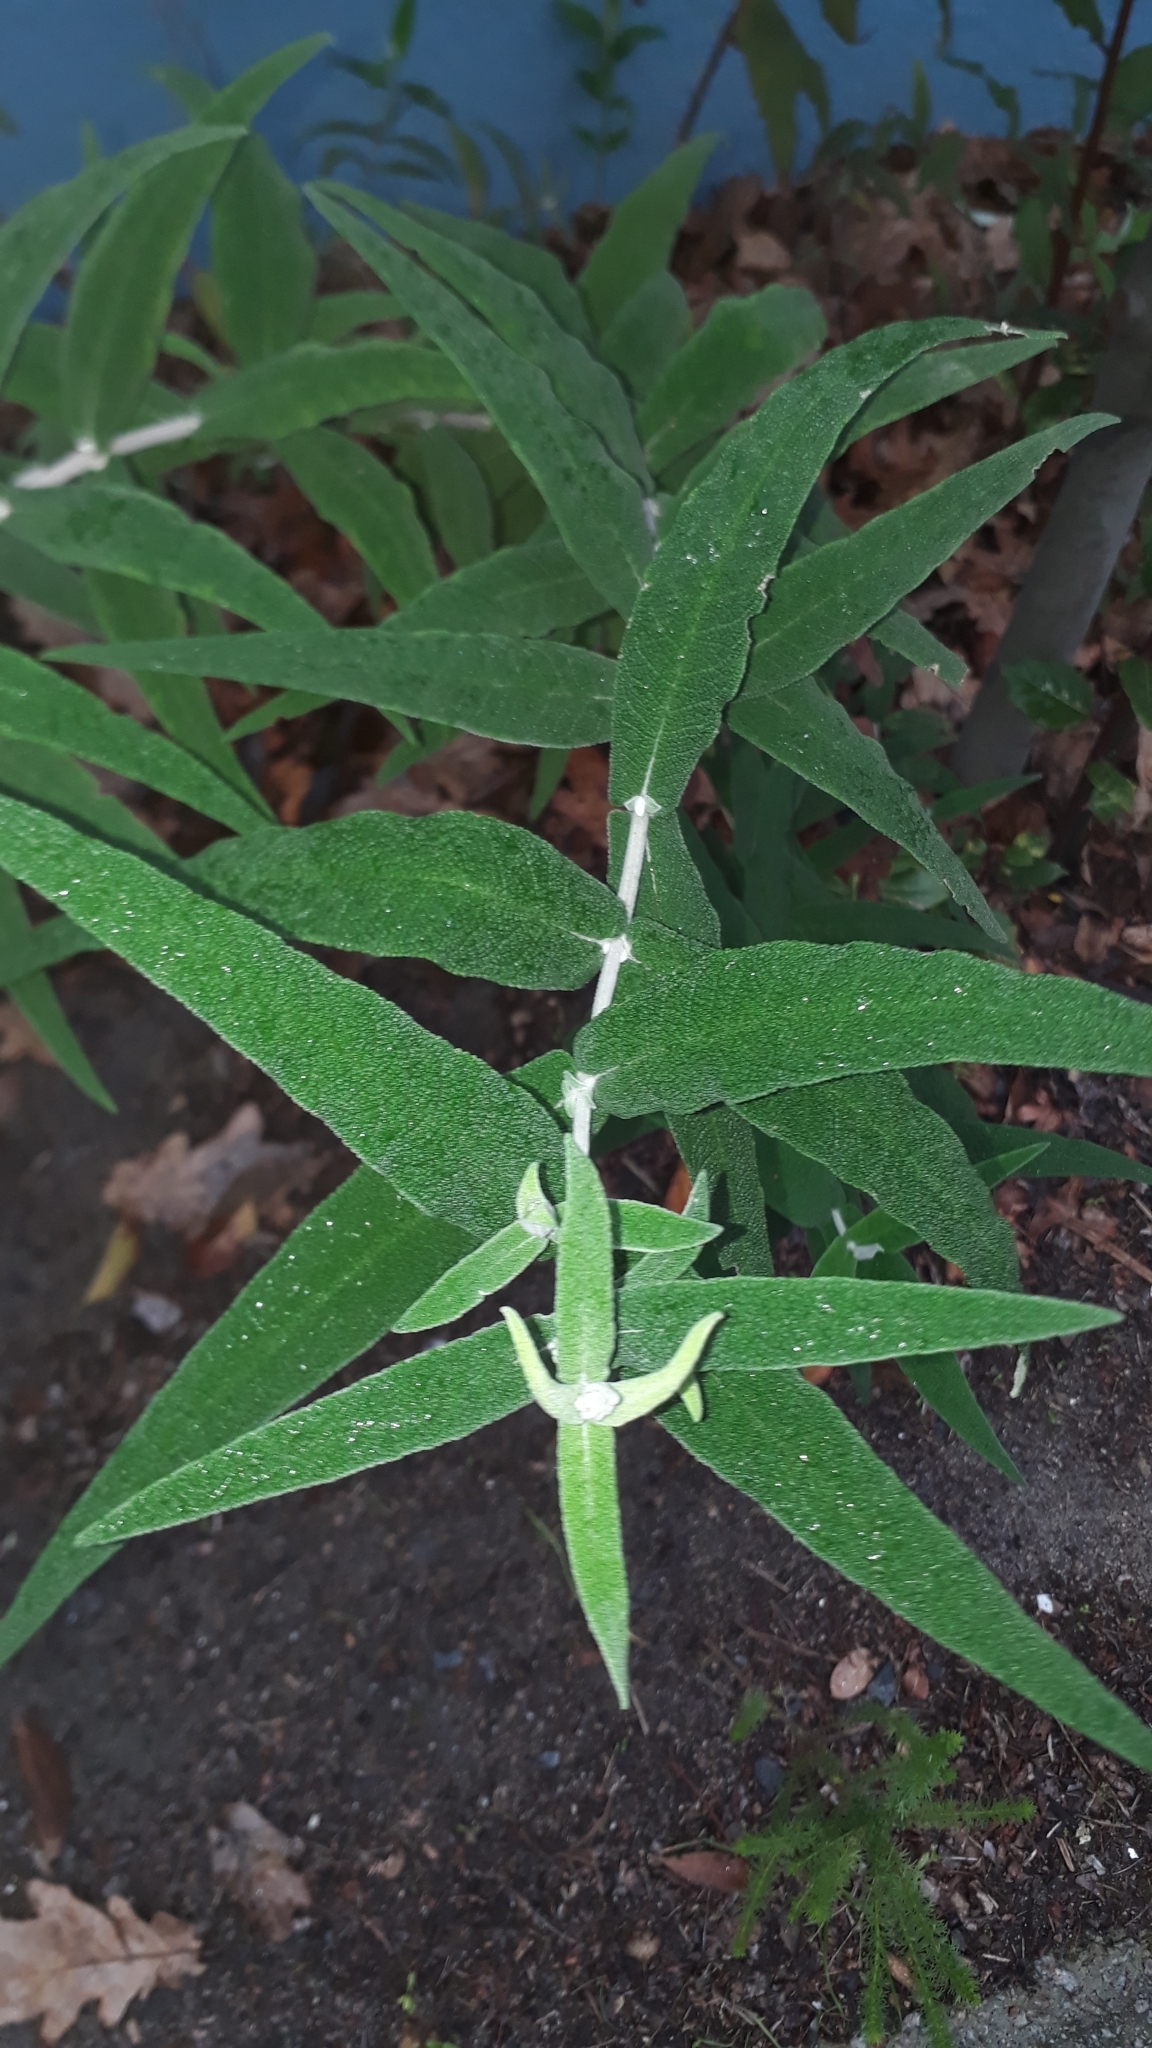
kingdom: Plantae
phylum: Tracheophyta
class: Magnoliopsida
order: Lamiales
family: Scrophulariaceae
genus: Buddleja
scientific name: Buddleja salviifolia
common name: Sagewood
